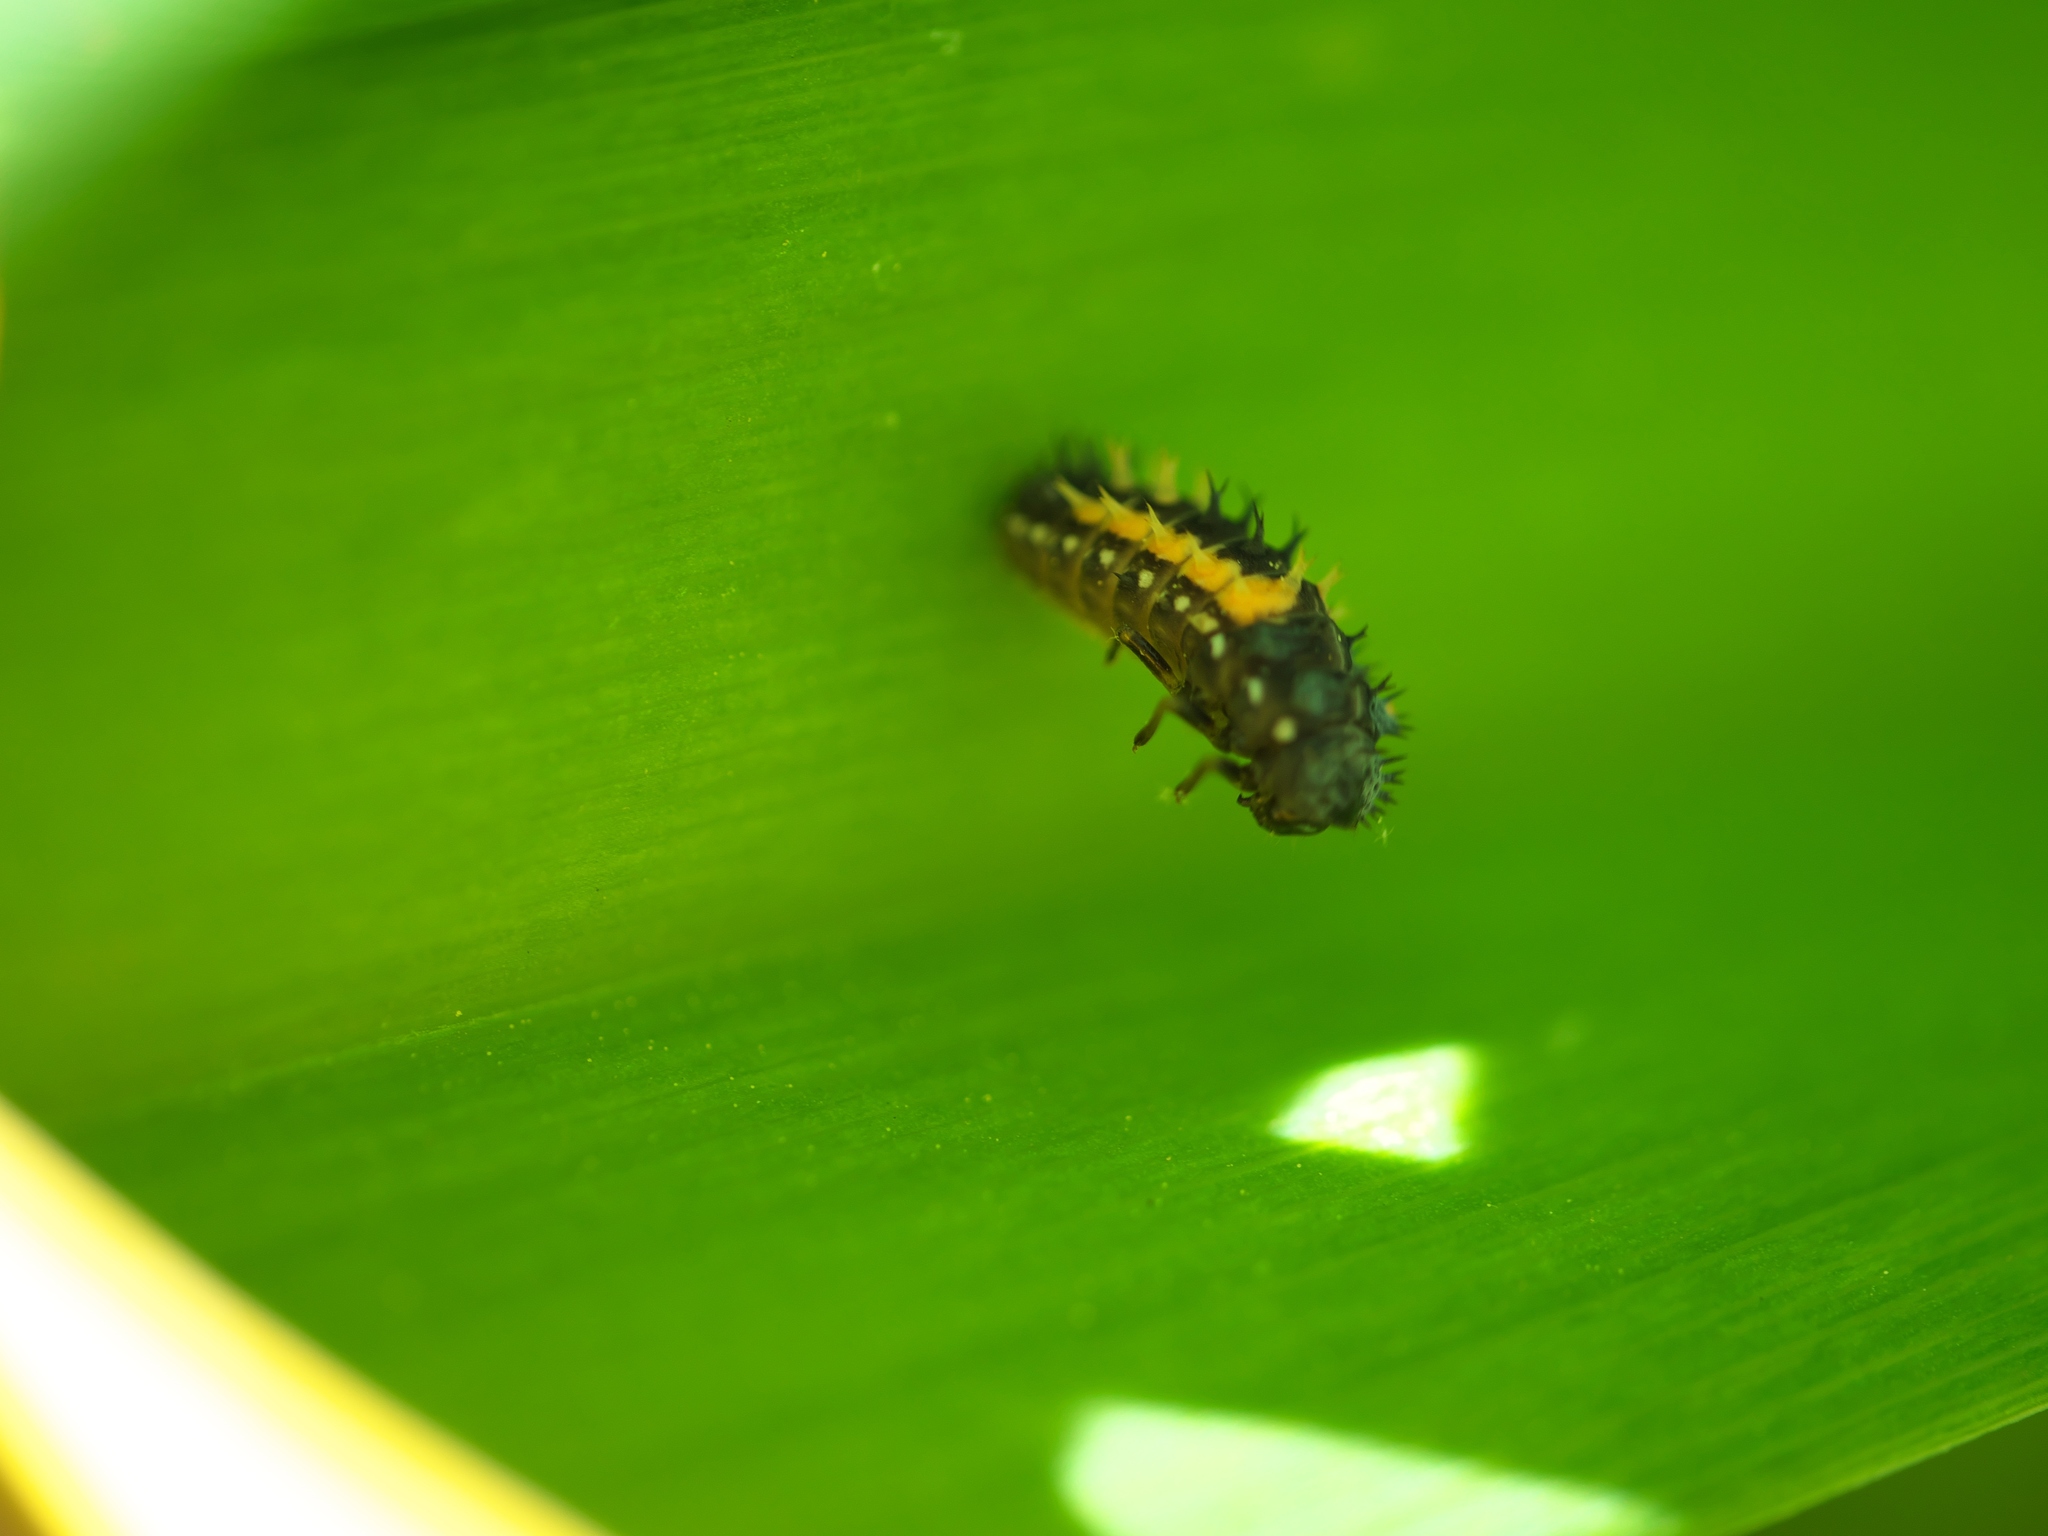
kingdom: Animalia
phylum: Arthropoda
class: Insecta
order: Coleoptera
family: Coccinellidae
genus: Harmonia
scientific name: Harmonia axyridis
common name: Harlequin ladybird
